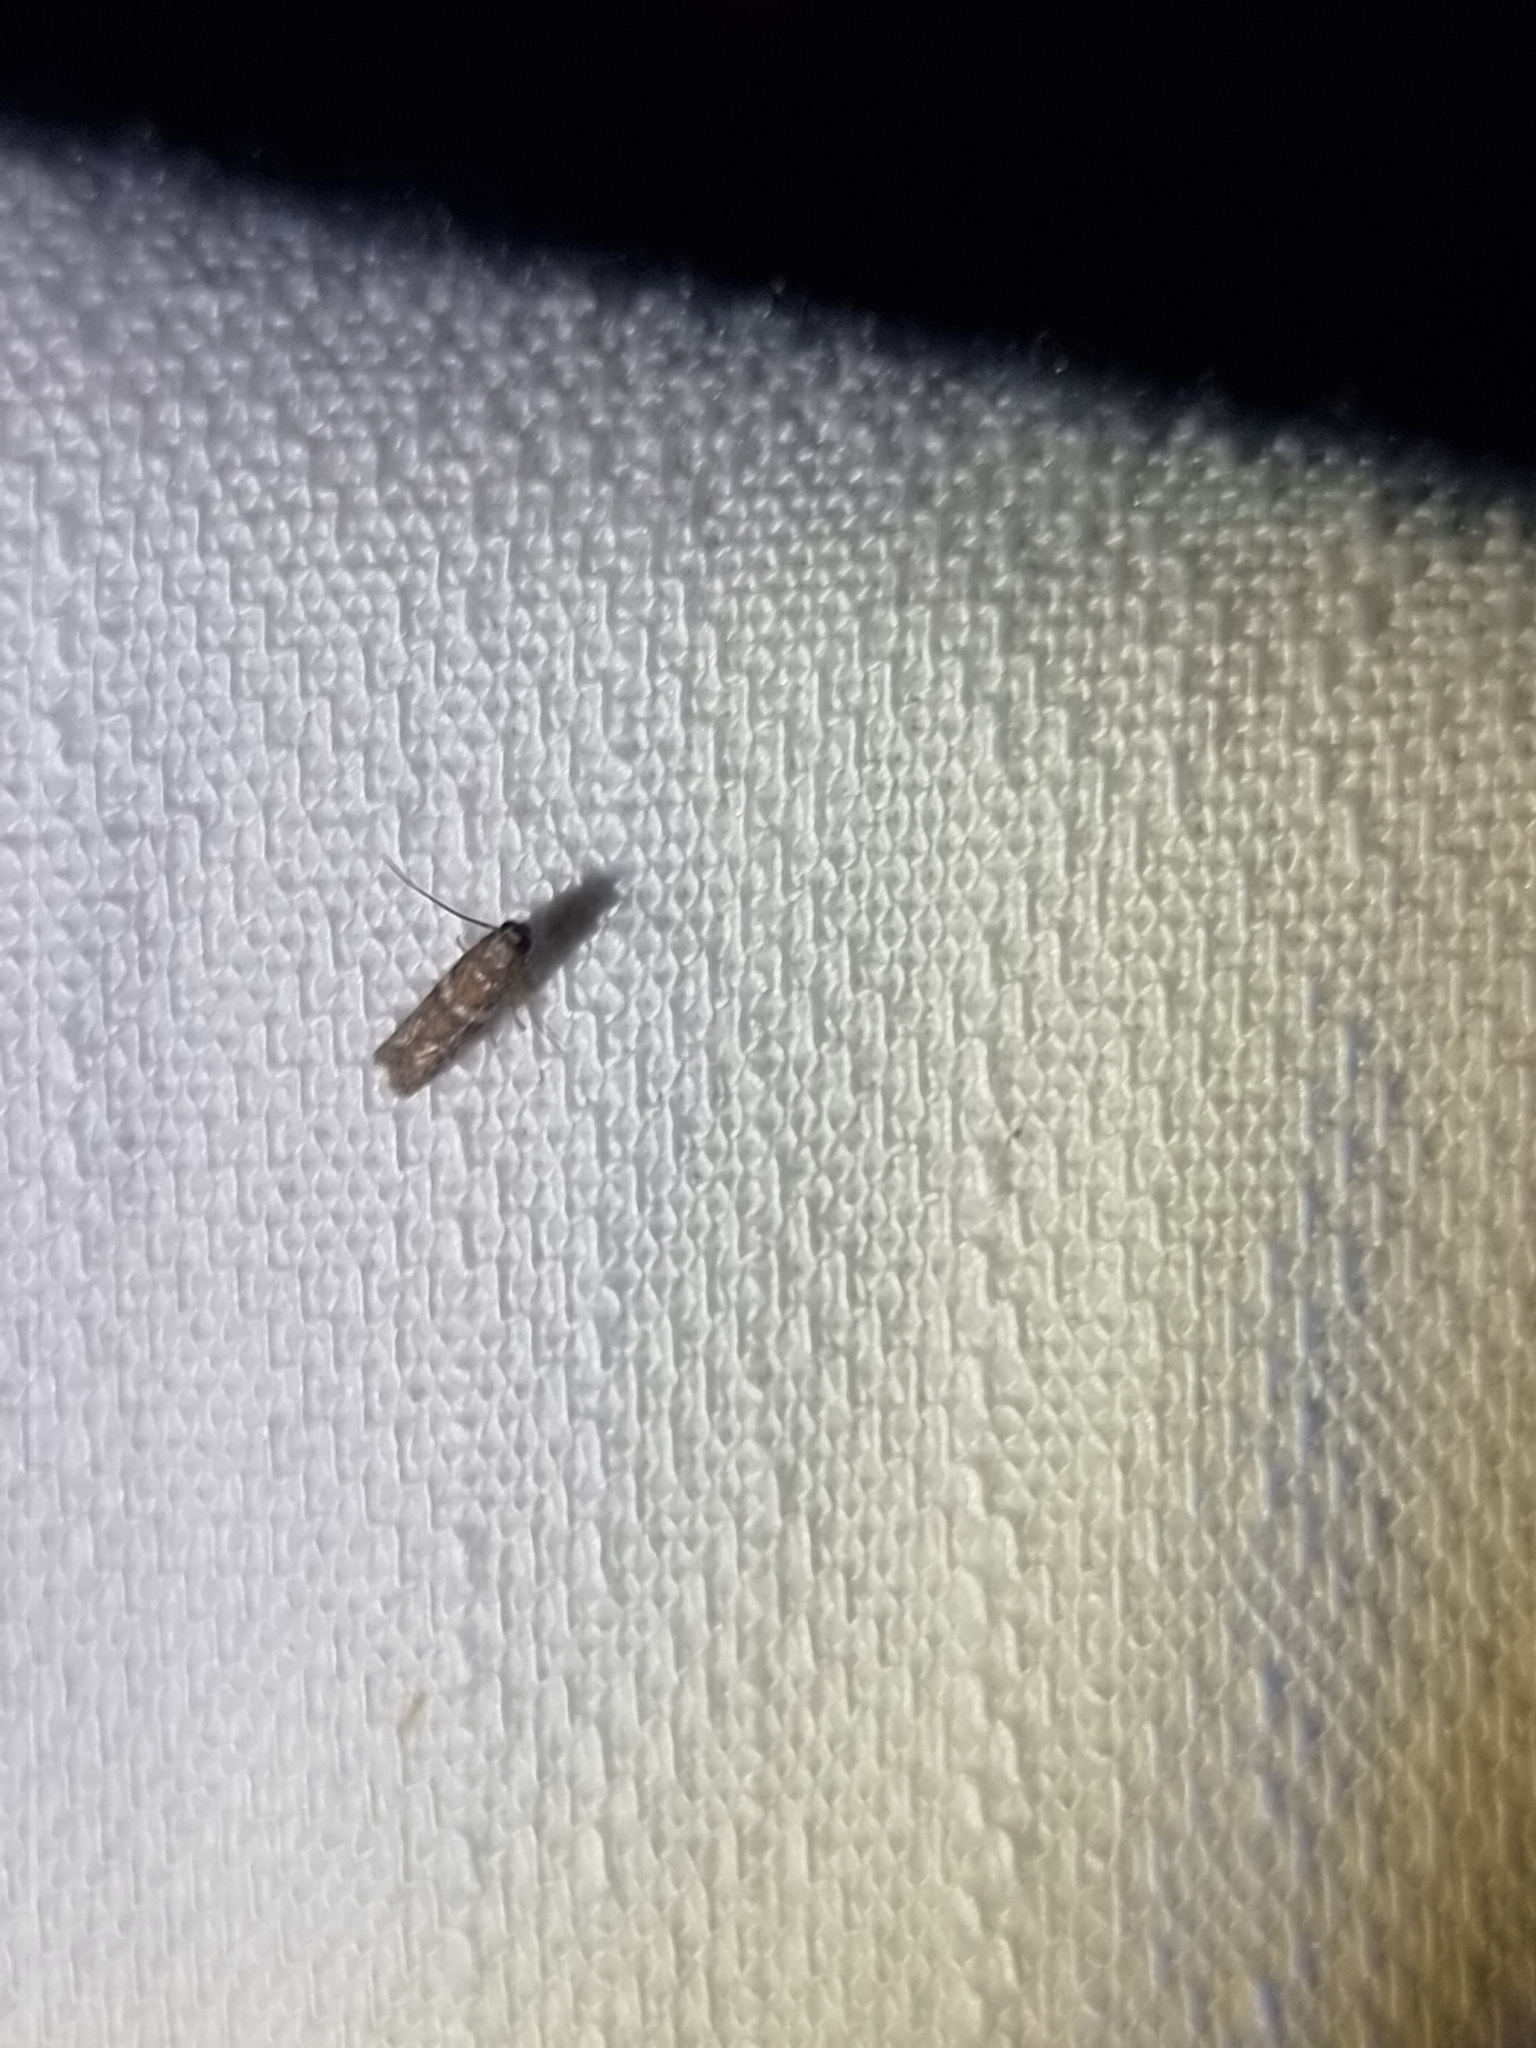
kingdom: Animalia
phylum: Arthropoda
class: Insecta
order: Lepidoptera
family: Pyralidae
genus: Addyme
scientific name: Addyme ferrorubella
